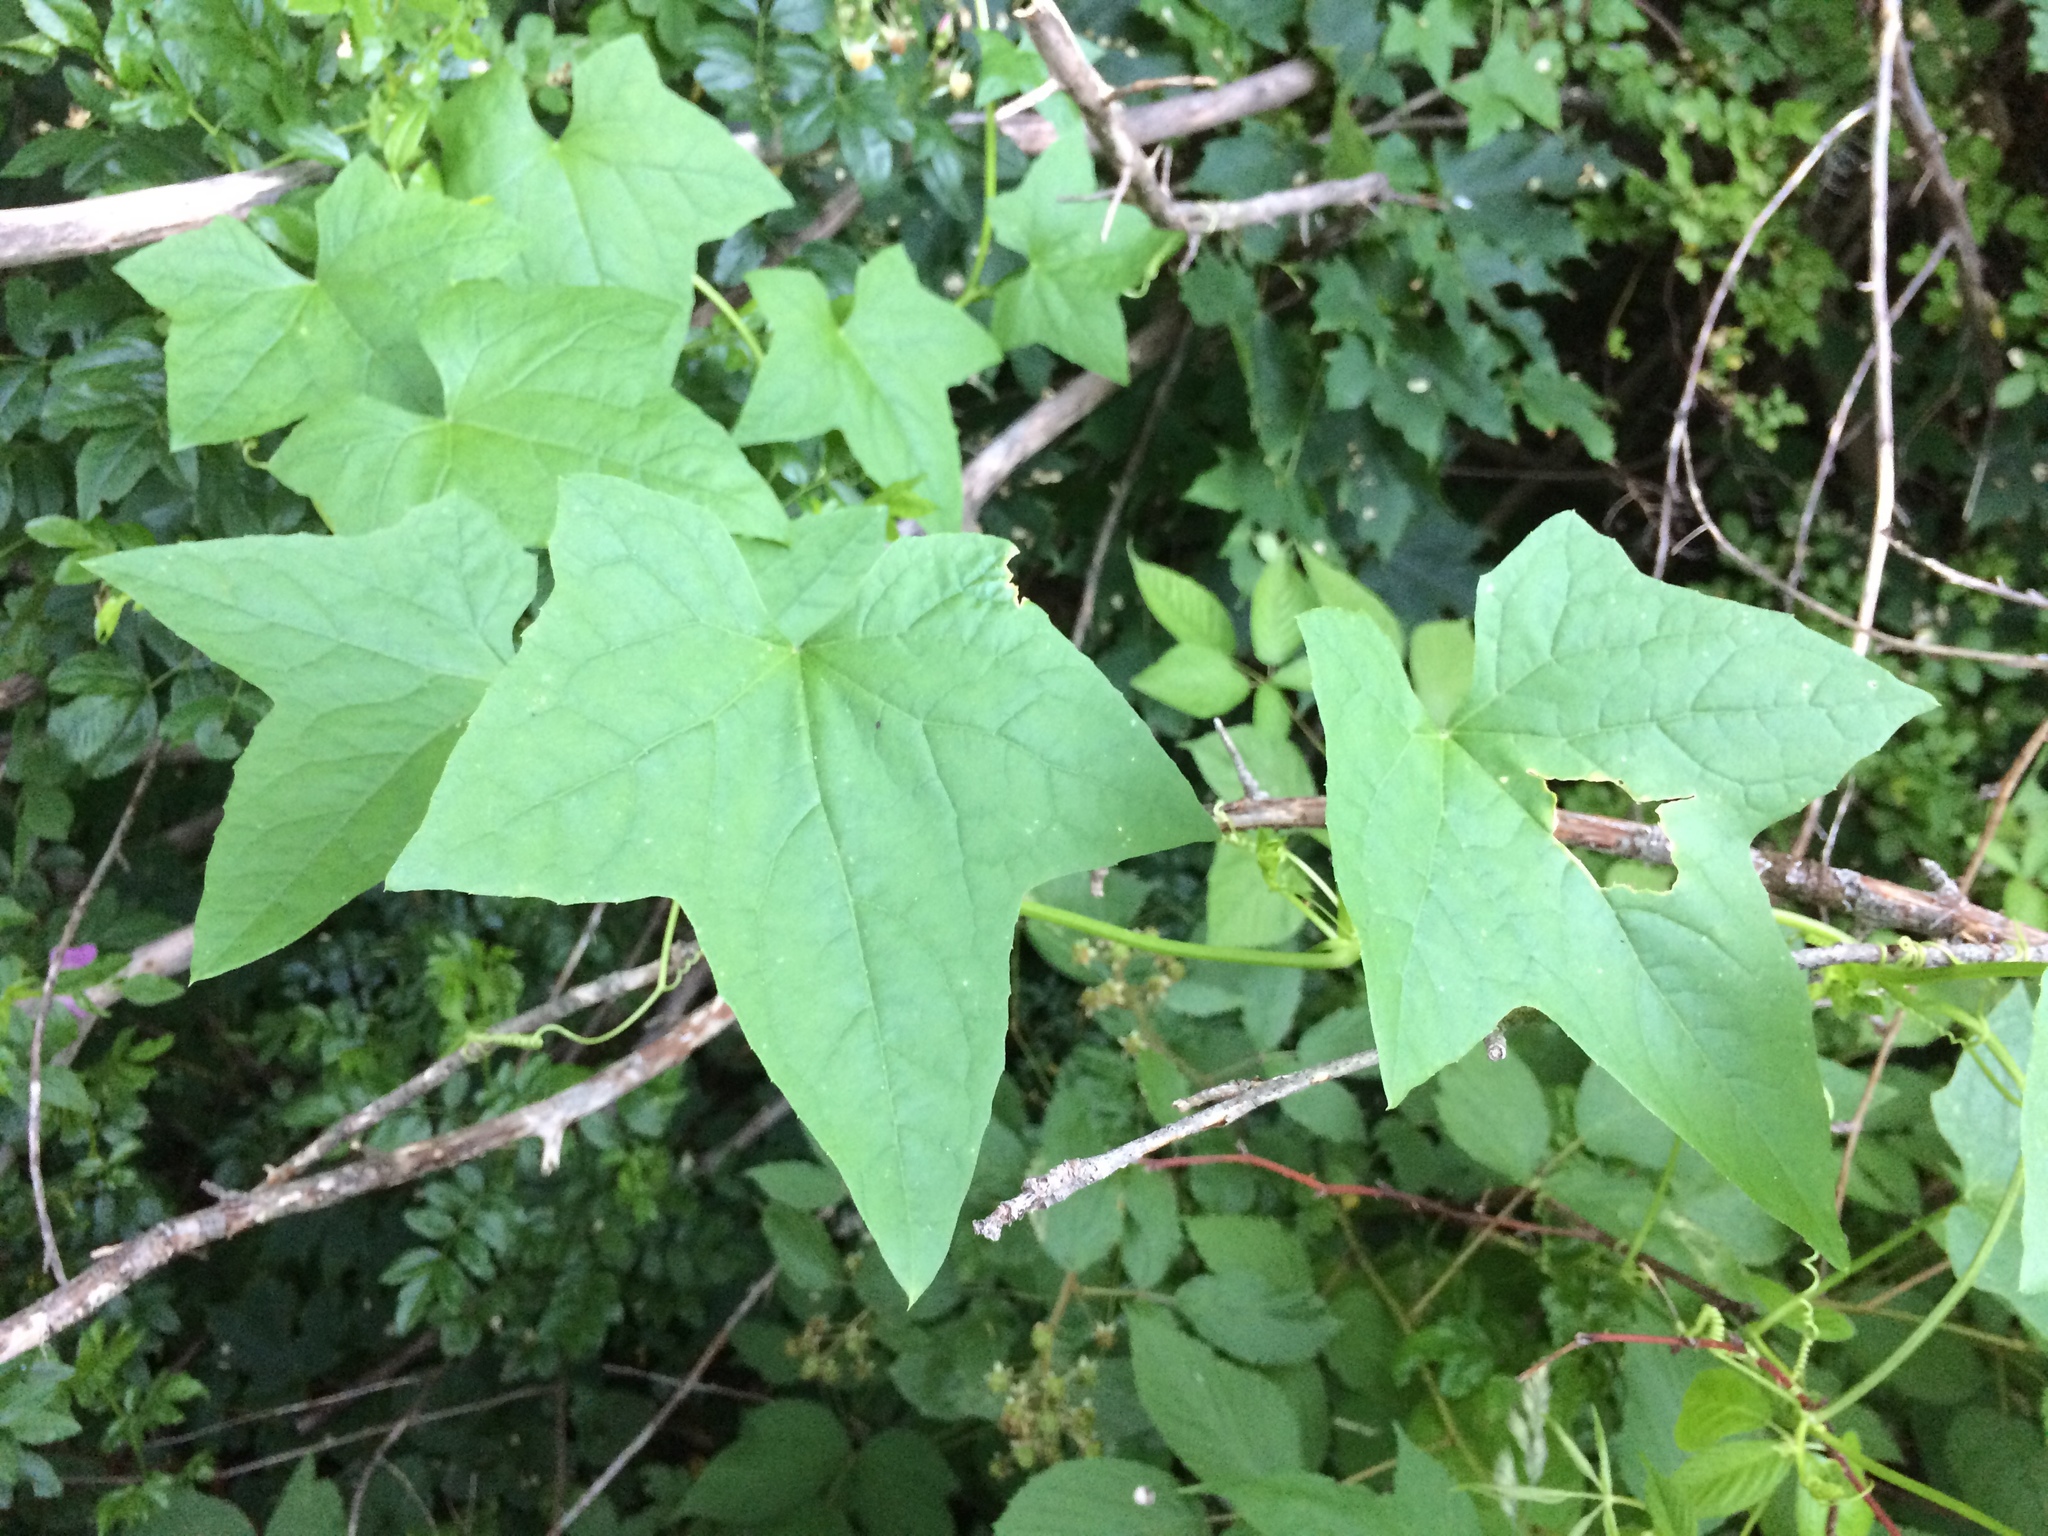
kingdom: Plantae
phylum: Tracheophyta
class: Magnoliopsida
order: Cucurbitales
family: Cucurbitaceae
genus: Echinocystis
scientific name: Echinocystis lobata
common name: Wild cucumber
